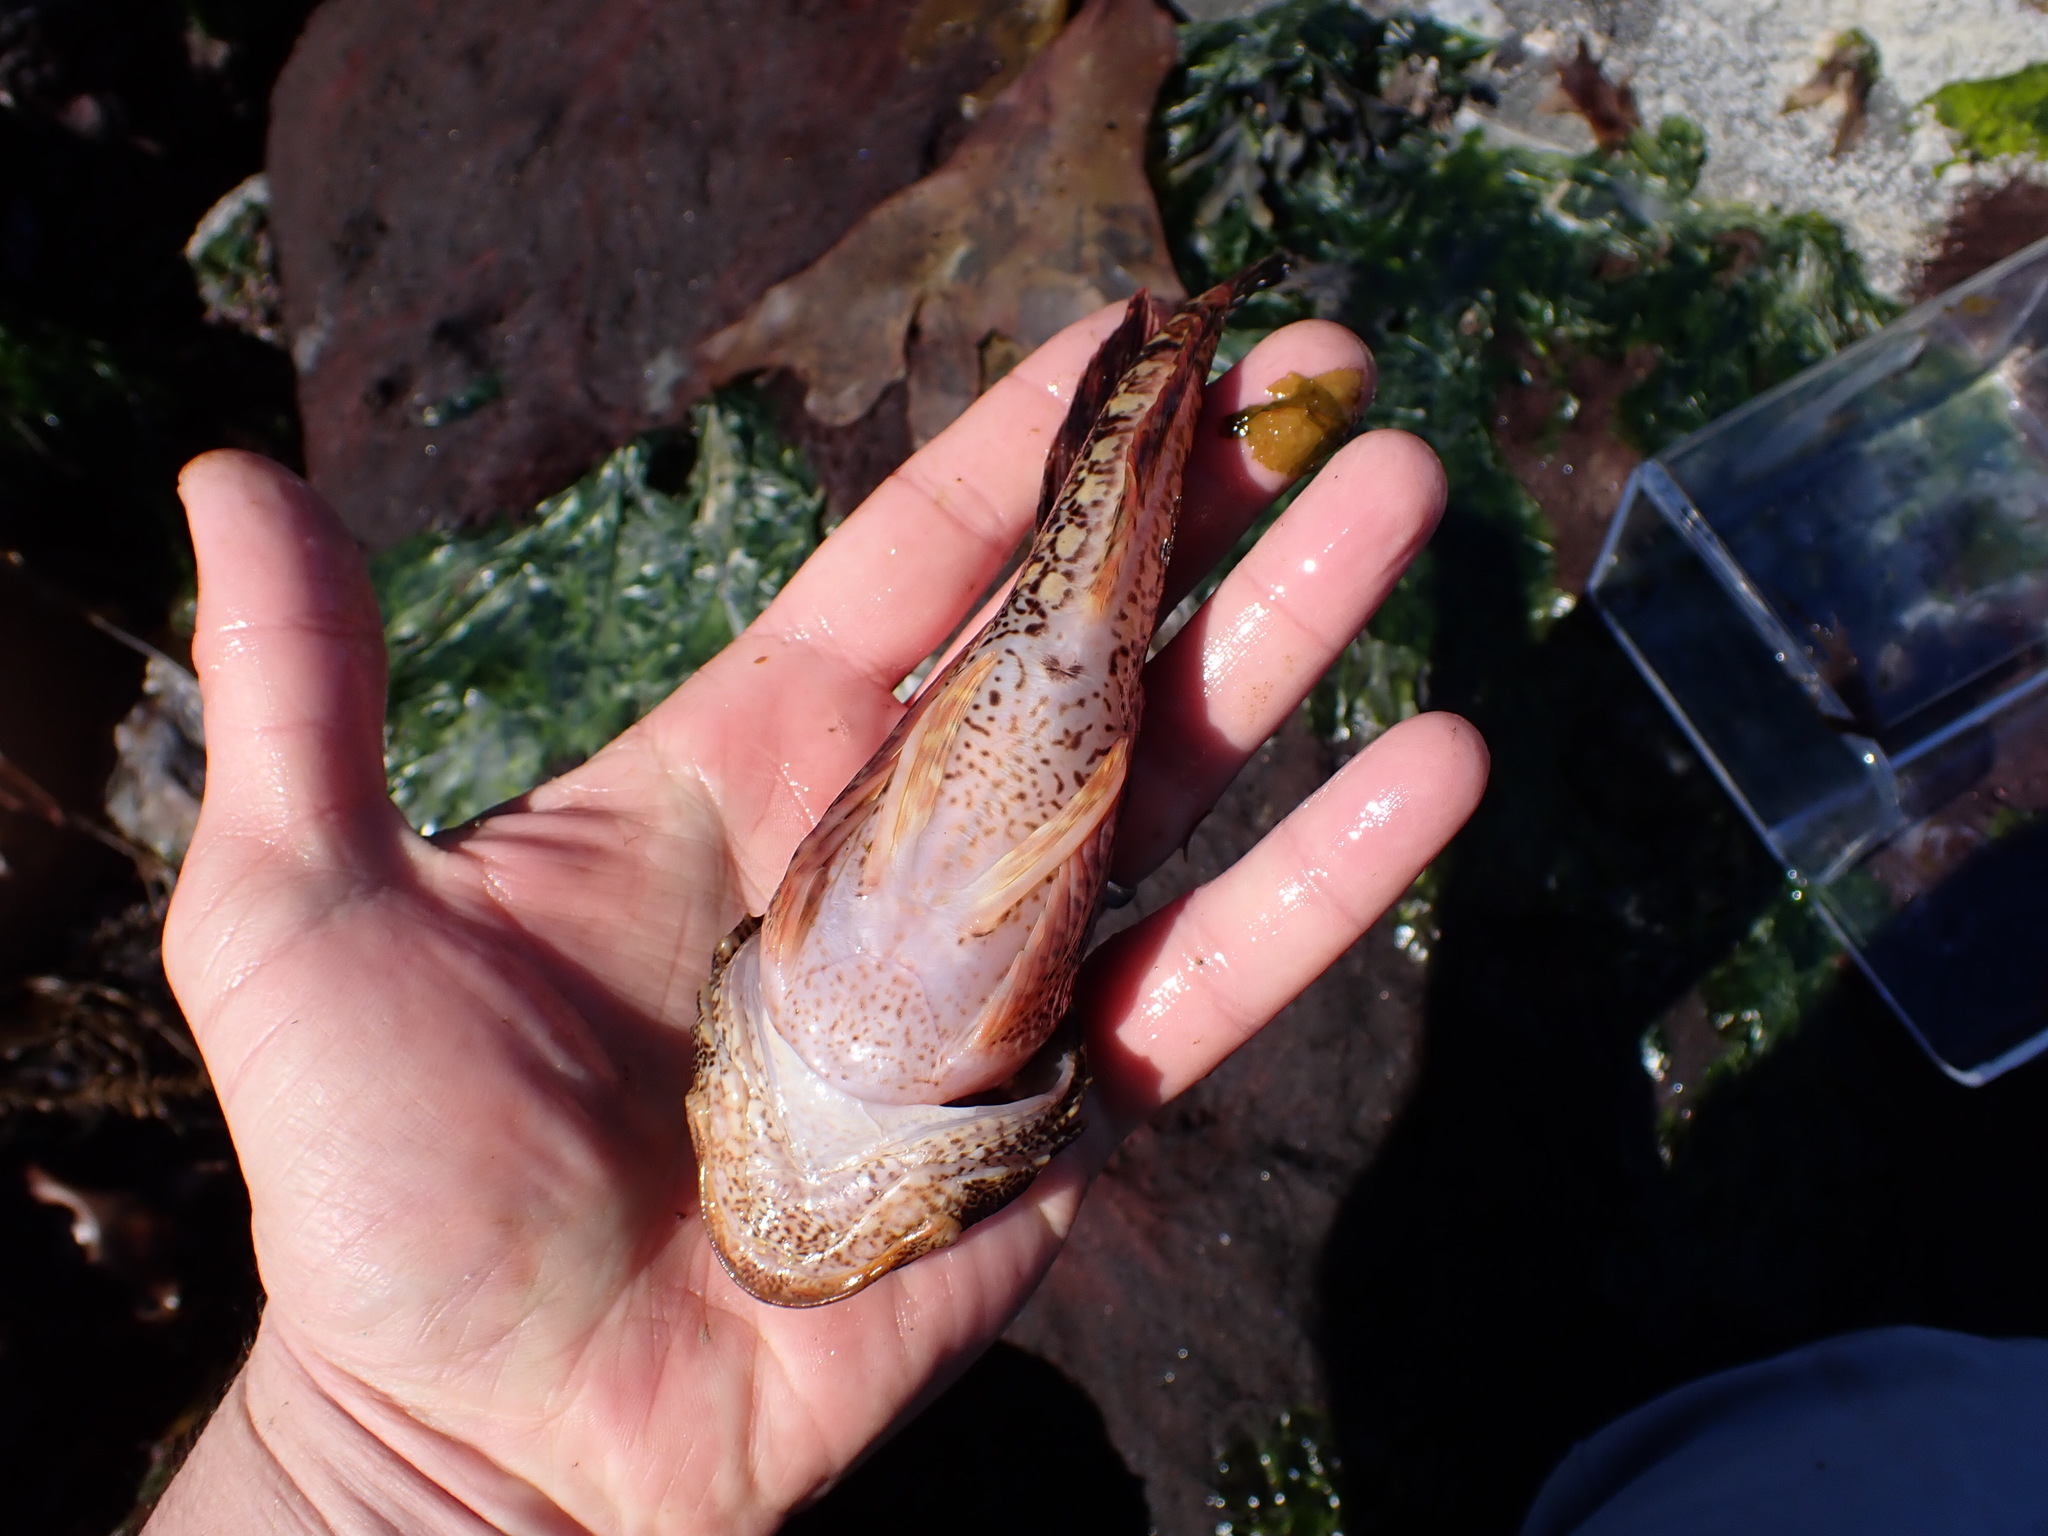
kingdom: Animalia
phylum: Chordata
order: Scorpaeniformes
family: Cottidae
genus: Hemilepidotus
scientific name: Hemilepidotus hemilepidotus
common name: Red irish lord
